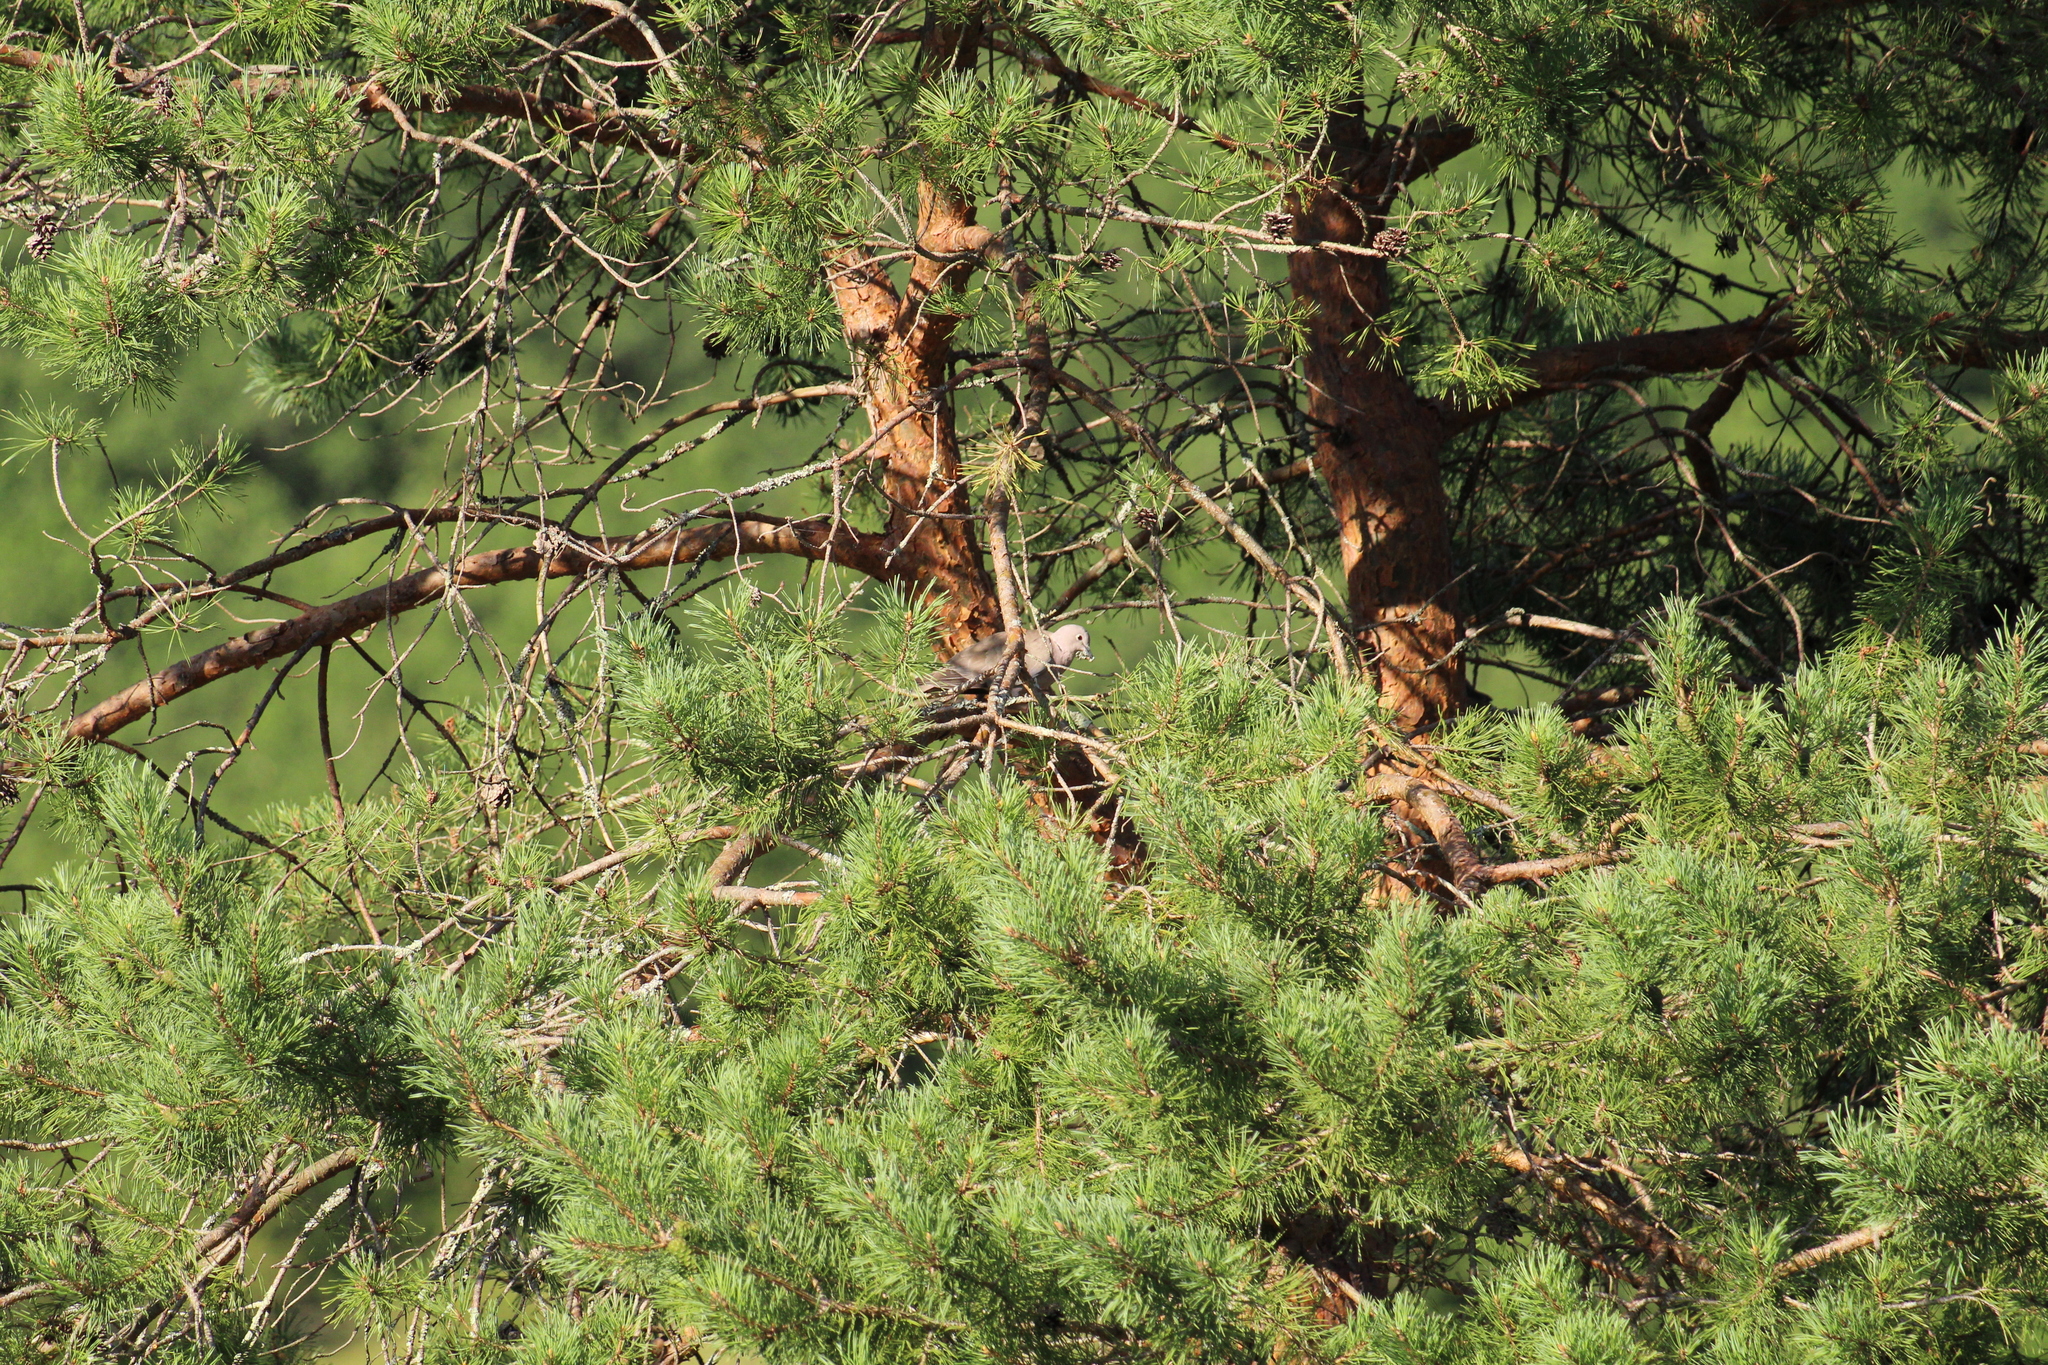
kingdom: Animalia
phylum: Chordata
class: Aves
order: Columbiformes
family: Columbidae
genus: Streptopelia
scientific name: Streptopelia decaocto
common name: Eurasian collared dove
